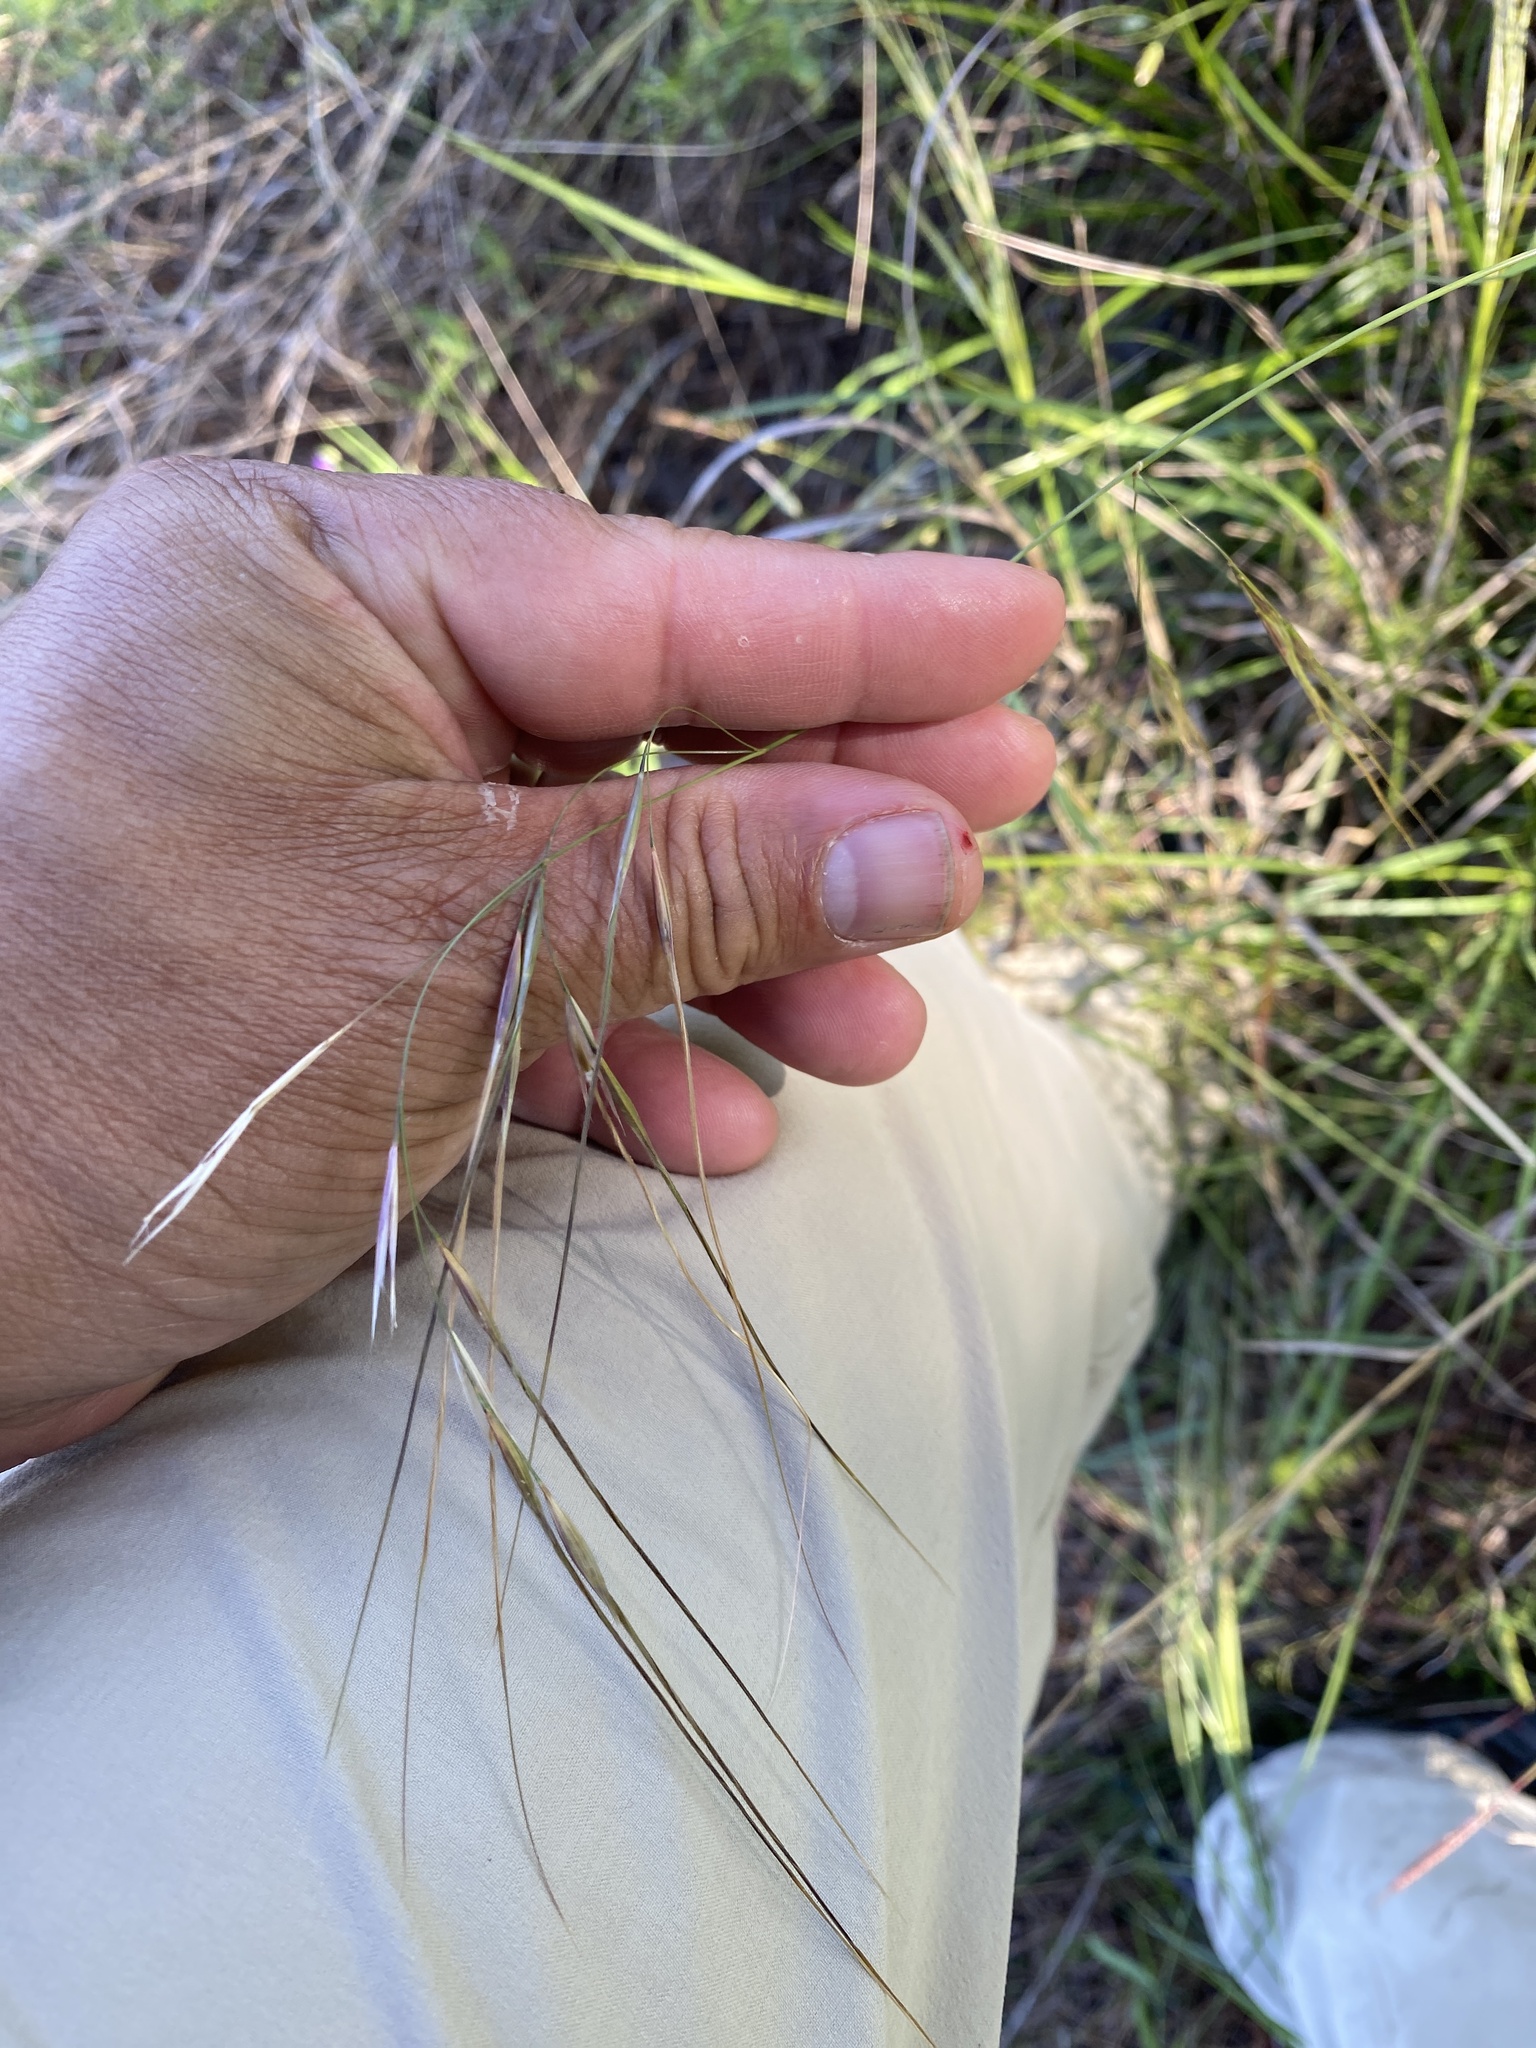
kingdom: Plantae
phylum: Tracheophyta
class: Liliopsida
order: Poales
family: Poaceae
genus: Nassella
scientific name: Nassella leucotricha
